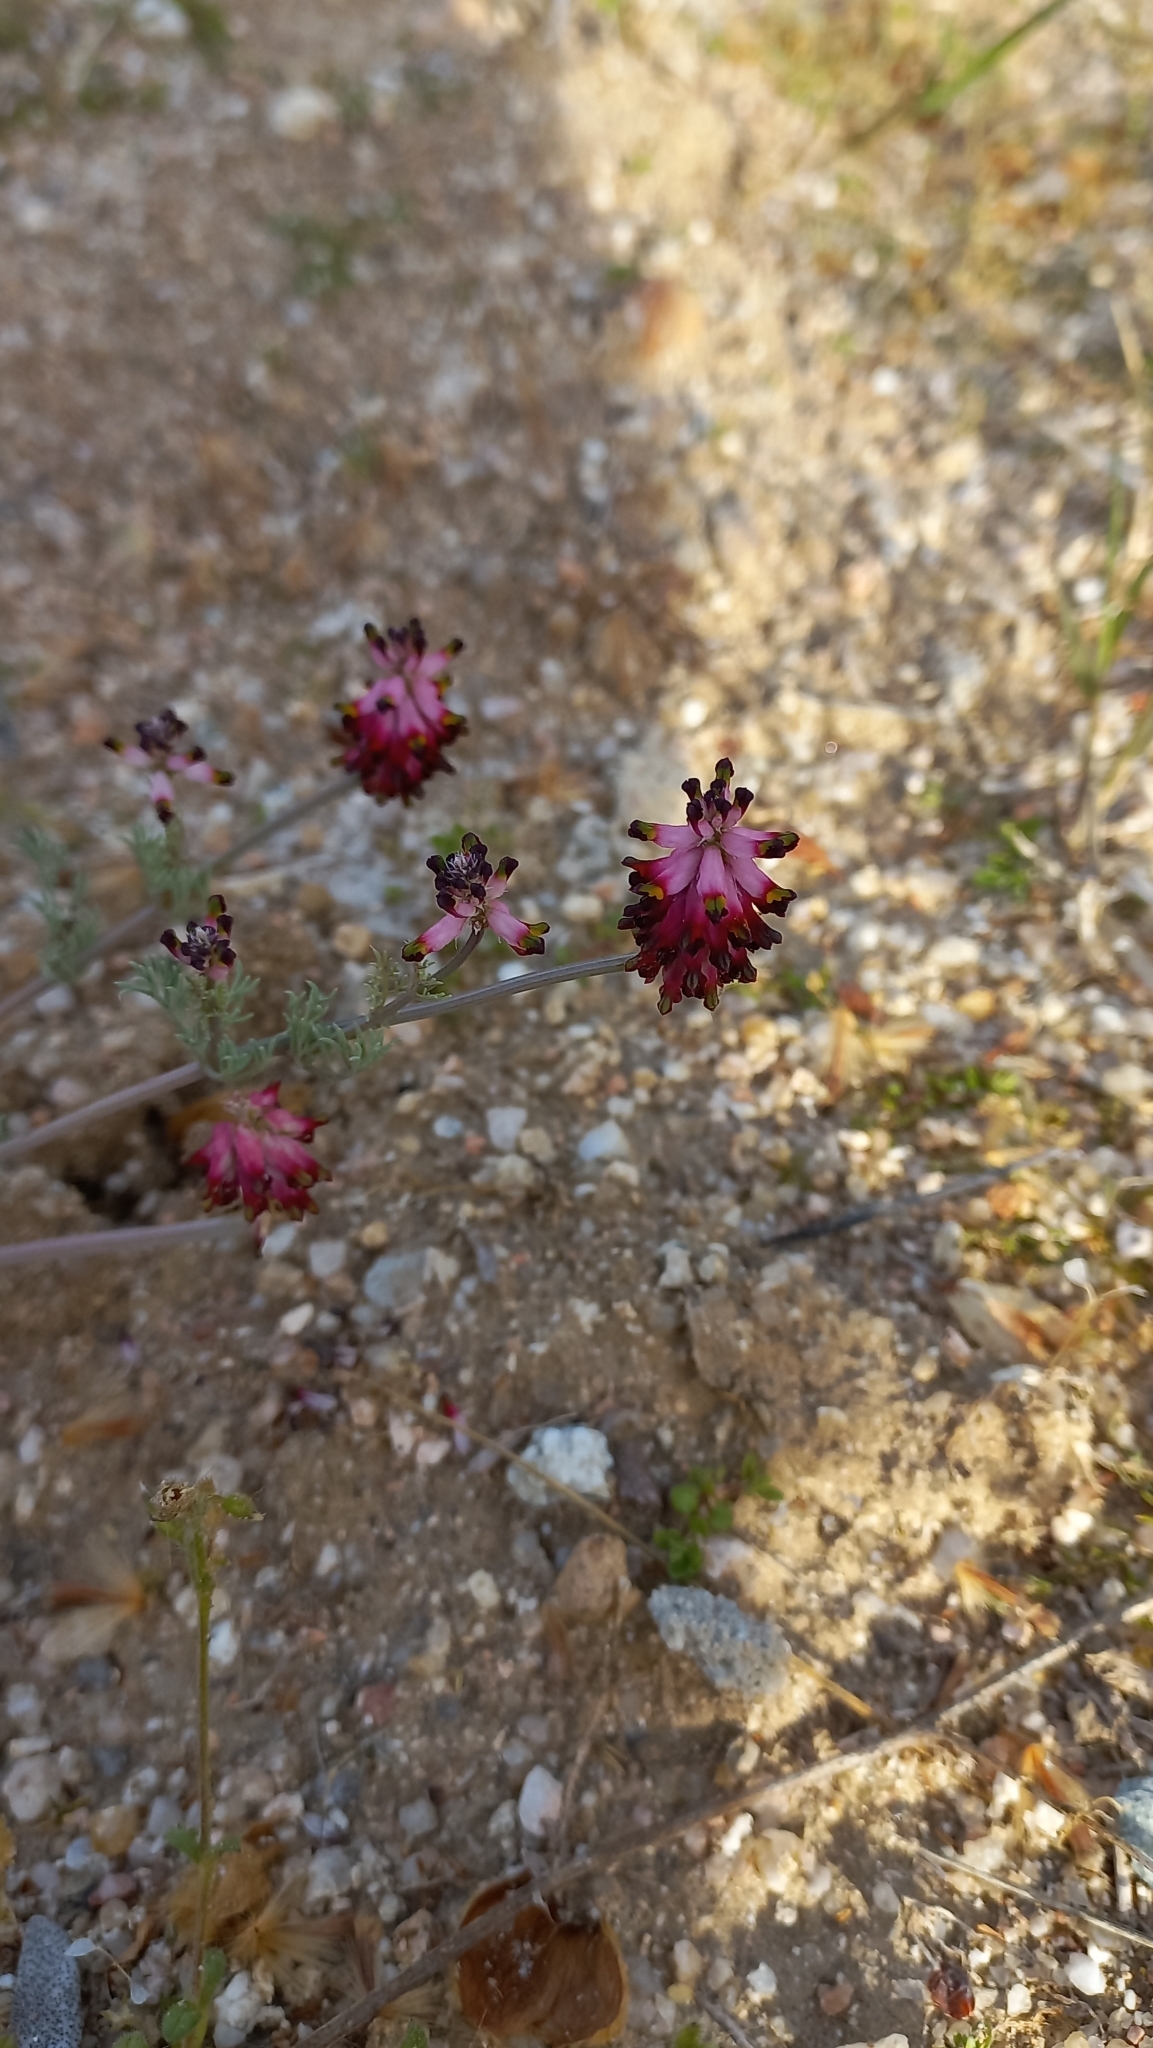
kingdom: Plantae
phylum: Tracheophyta
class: Magnoliopsida
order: Ranunculales
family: Papaveraceae
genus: Platycapnos
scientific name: Platycapnos spicata
